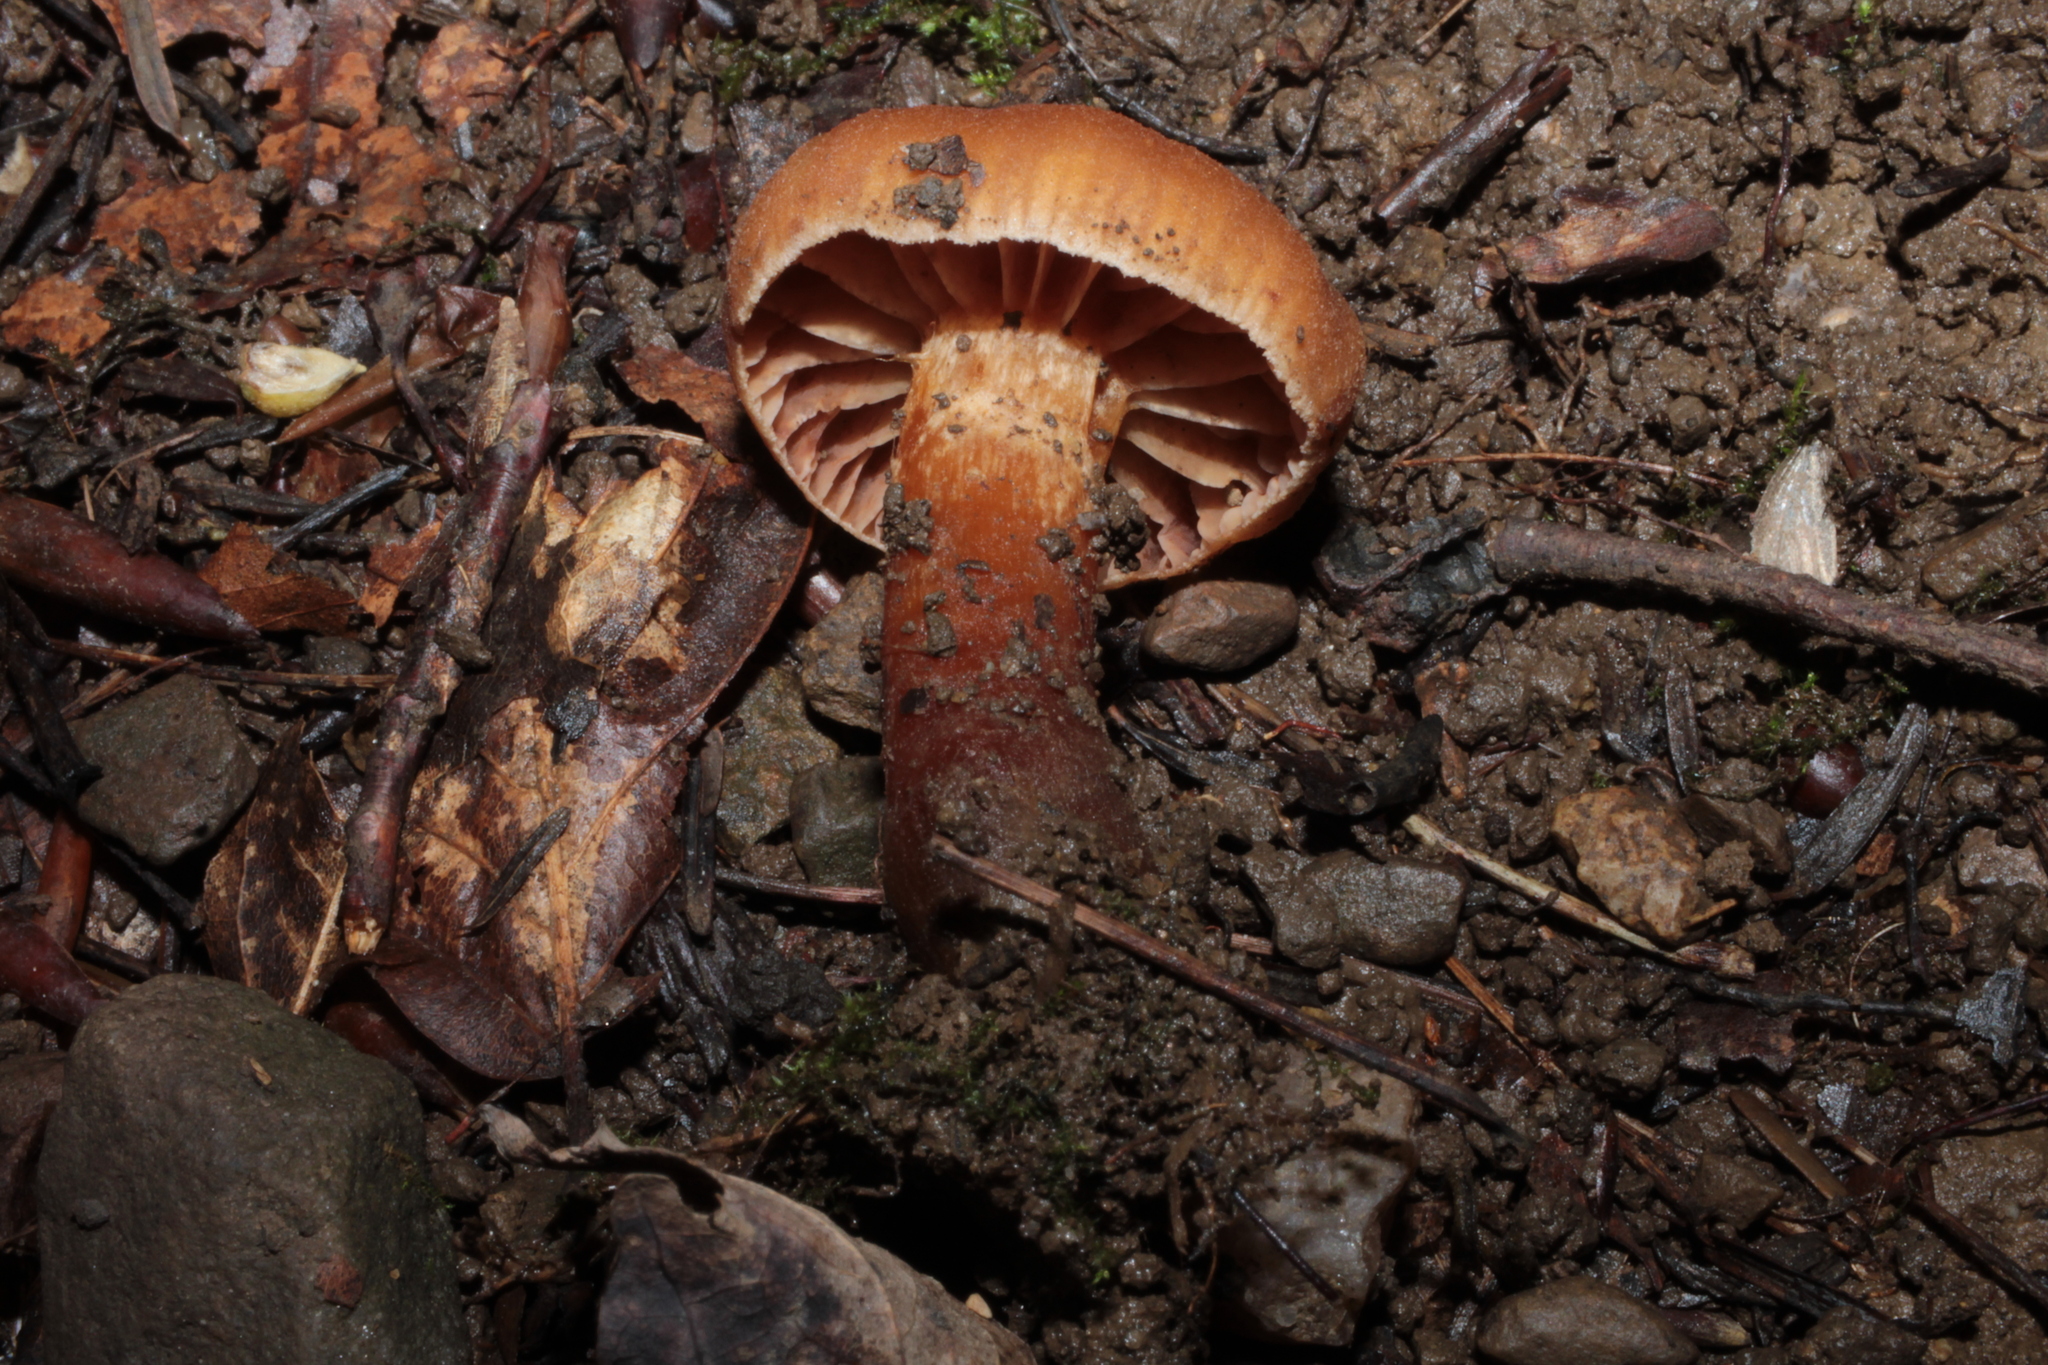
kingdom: Fungi
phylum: Basidiomycota
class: Agaricomycetes
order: Agaricales
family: Cortinariaceae
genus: Cortinarius
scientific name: Cortinarius
